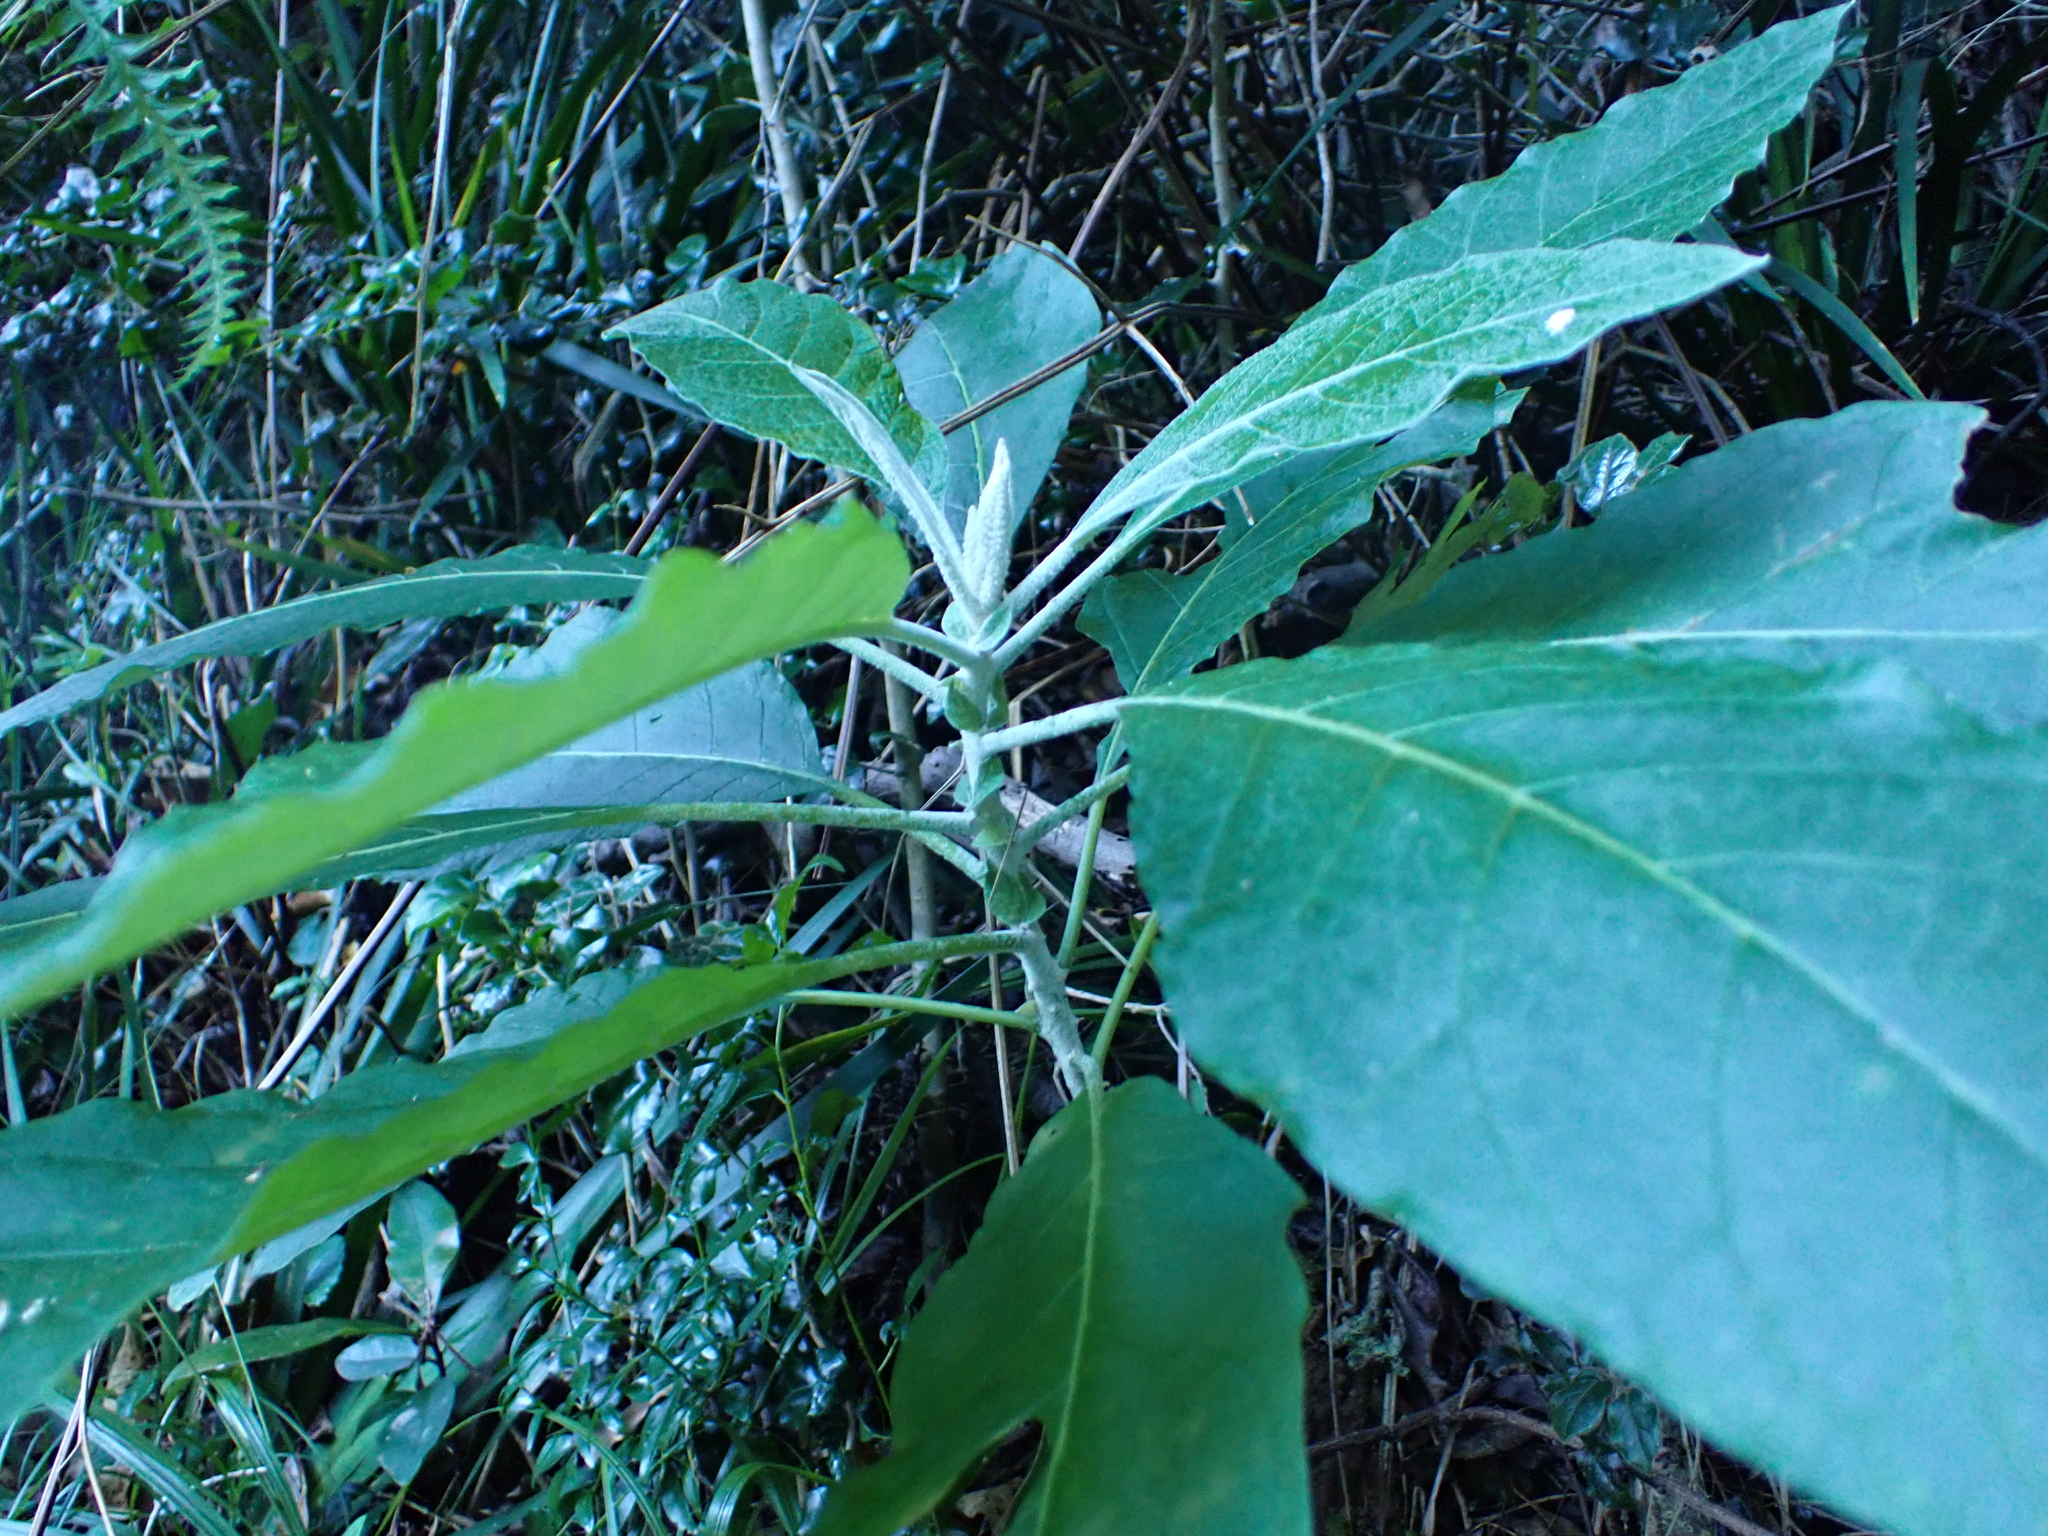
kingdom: Plantae
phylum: Tracheophyta
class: Magnoliopsida
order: Solanales
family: Solanaceae
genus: Solanum
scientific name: Solanum giganteum
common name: Healing-leaf-tree
